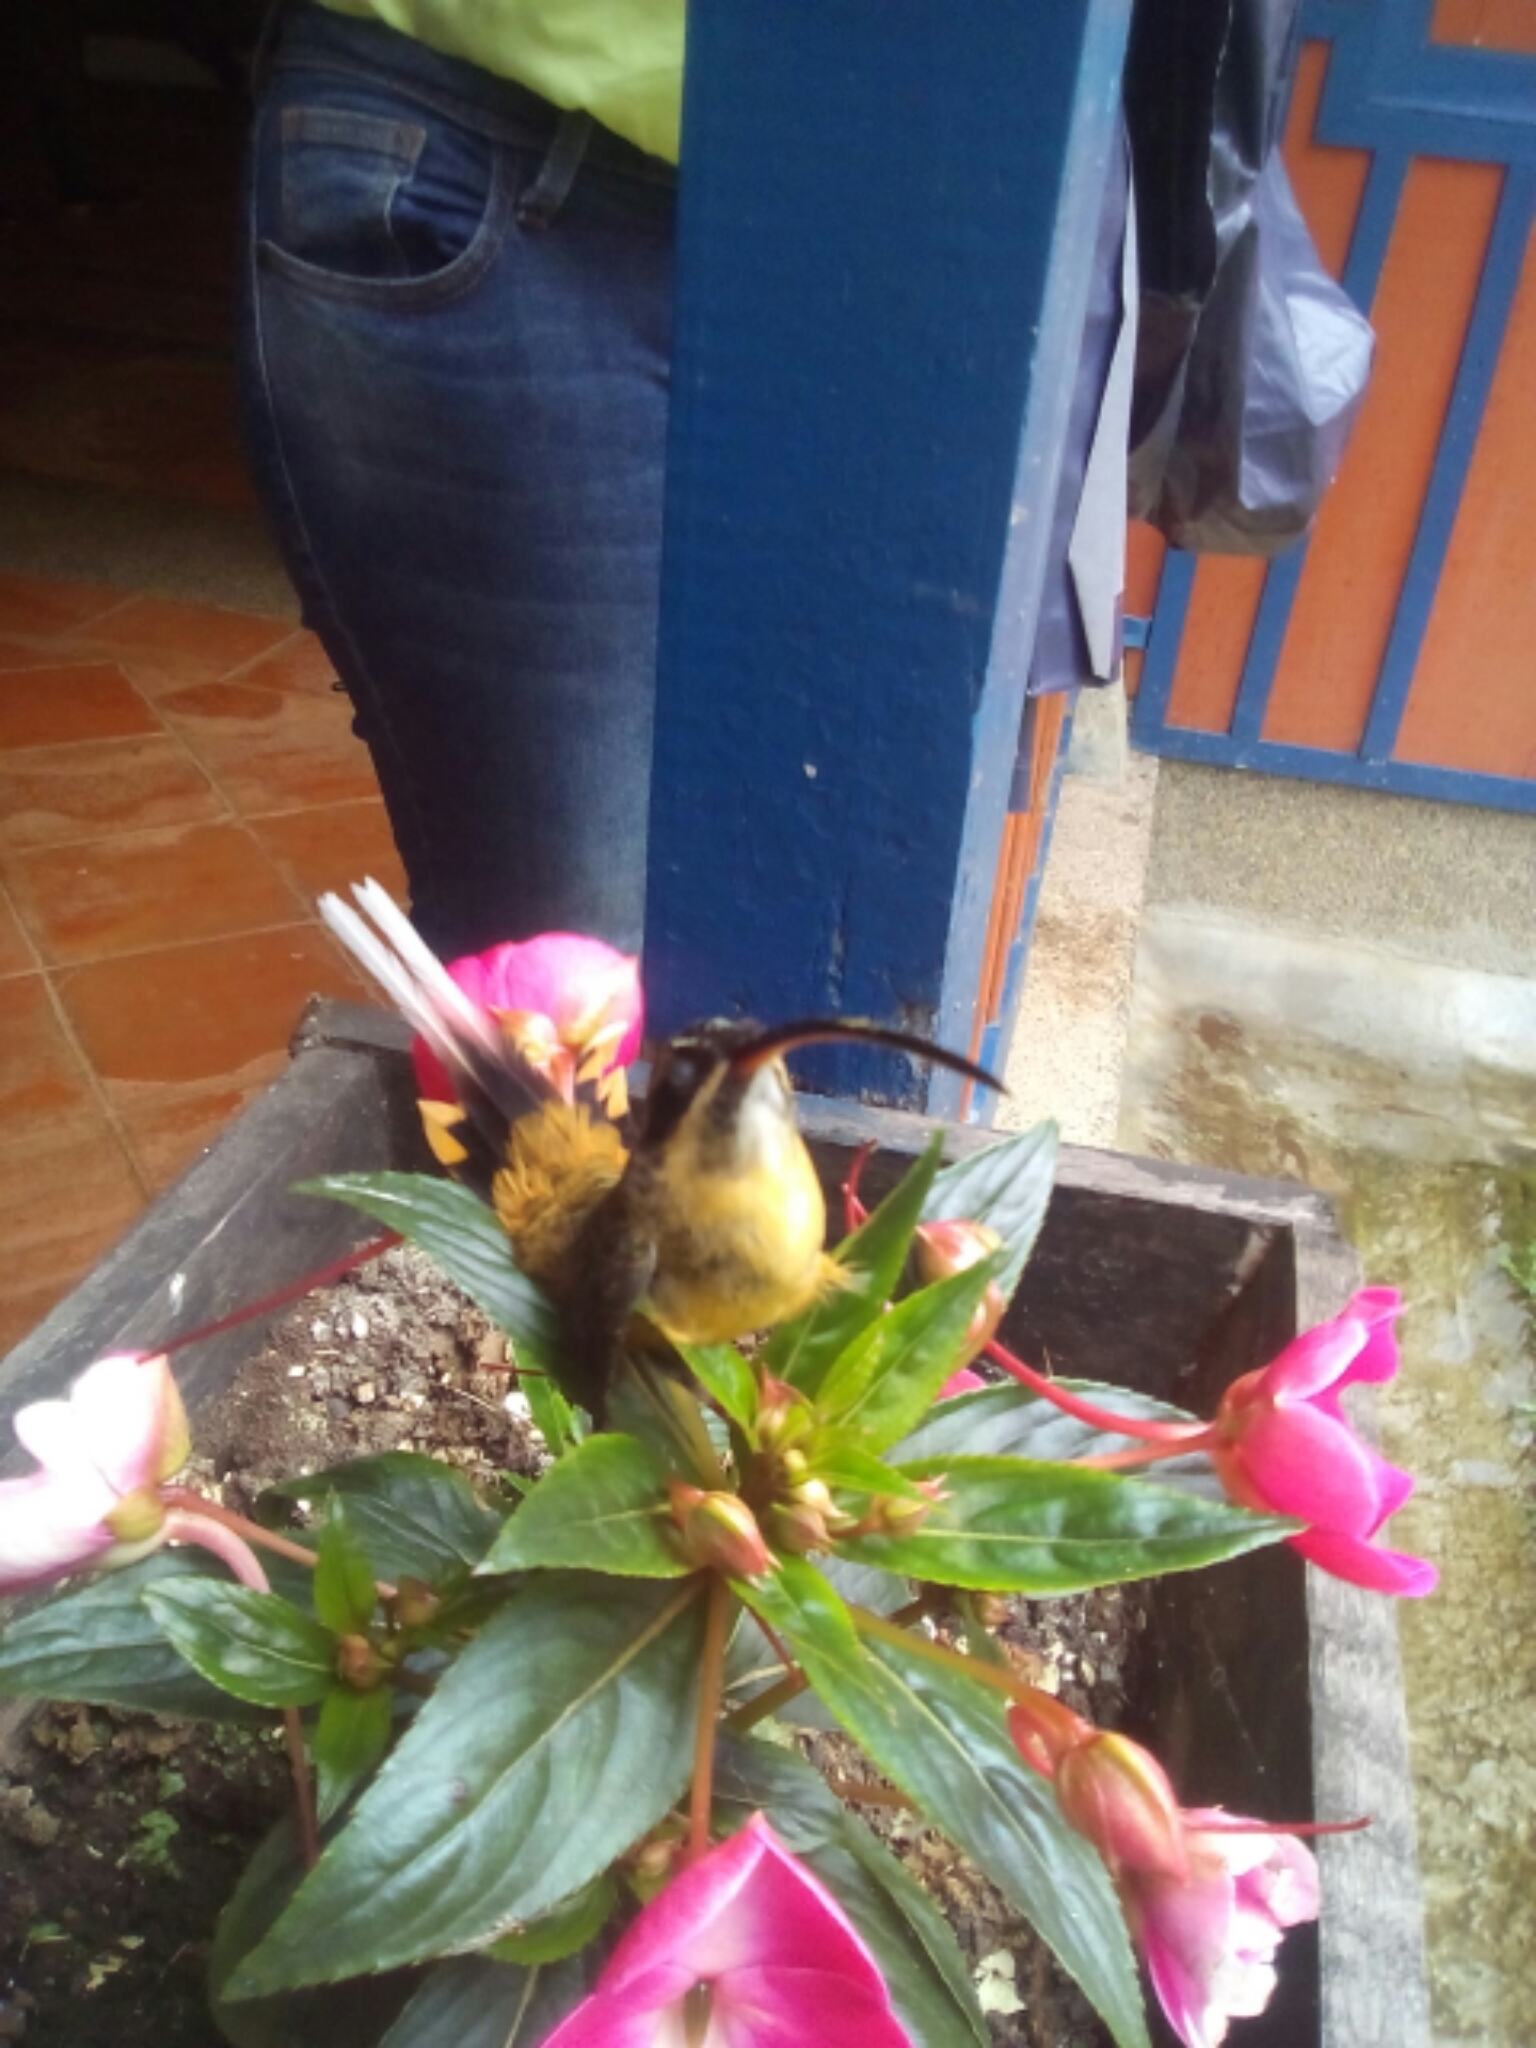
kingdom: Animalia
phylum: Chordata
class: Aves
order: Apodiformes
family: Trochilidae
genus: Phaethornis
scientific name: Phaethornis syrmatophorus
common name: Tawny-bellied hermit
